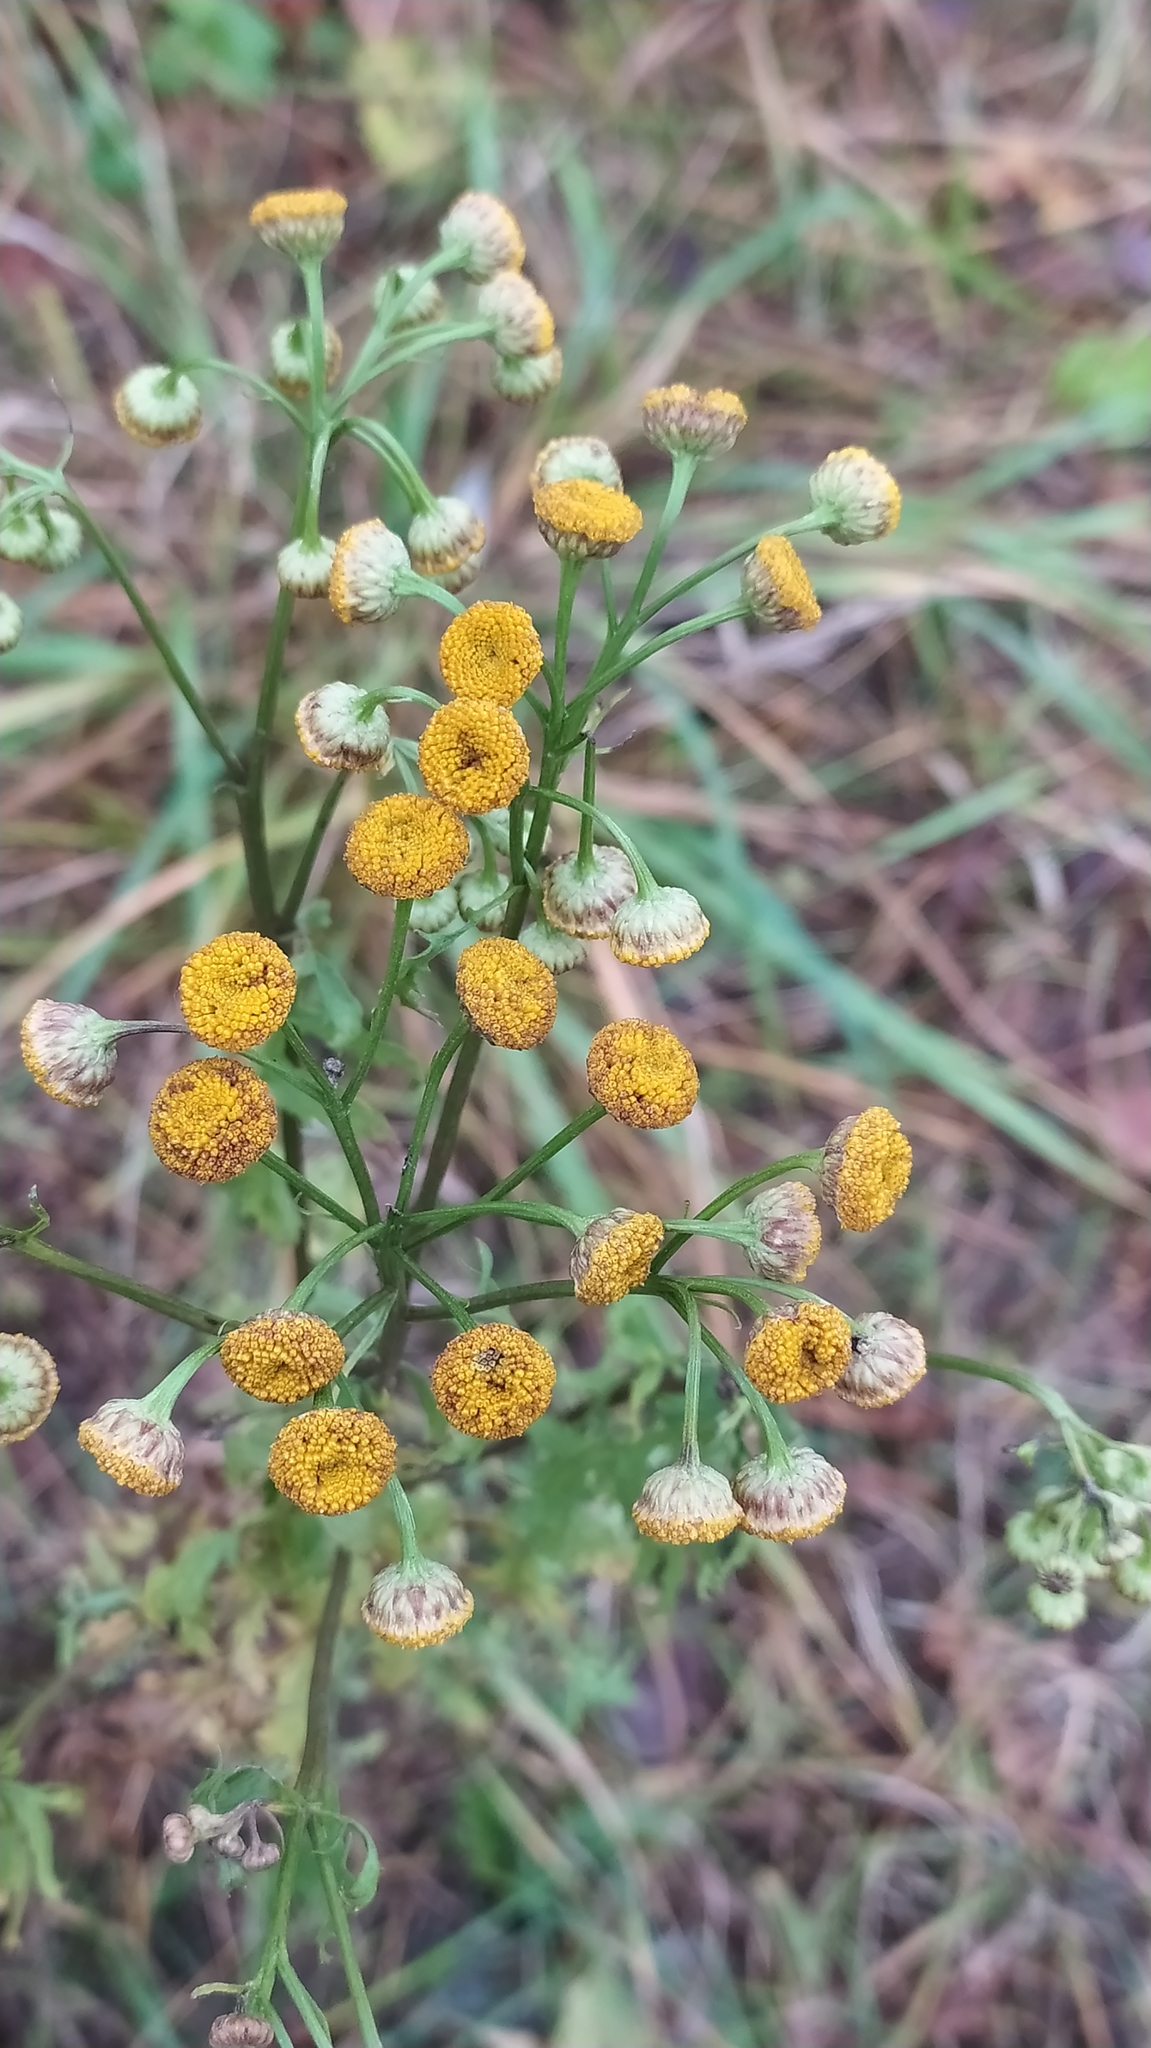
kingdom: Plantae
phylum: Tracheophyta
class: Magnoliopsida
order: Asterales
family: Asteraceae
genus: Tanacetum
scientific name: Tanacetum vulgare
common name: Common tansy
